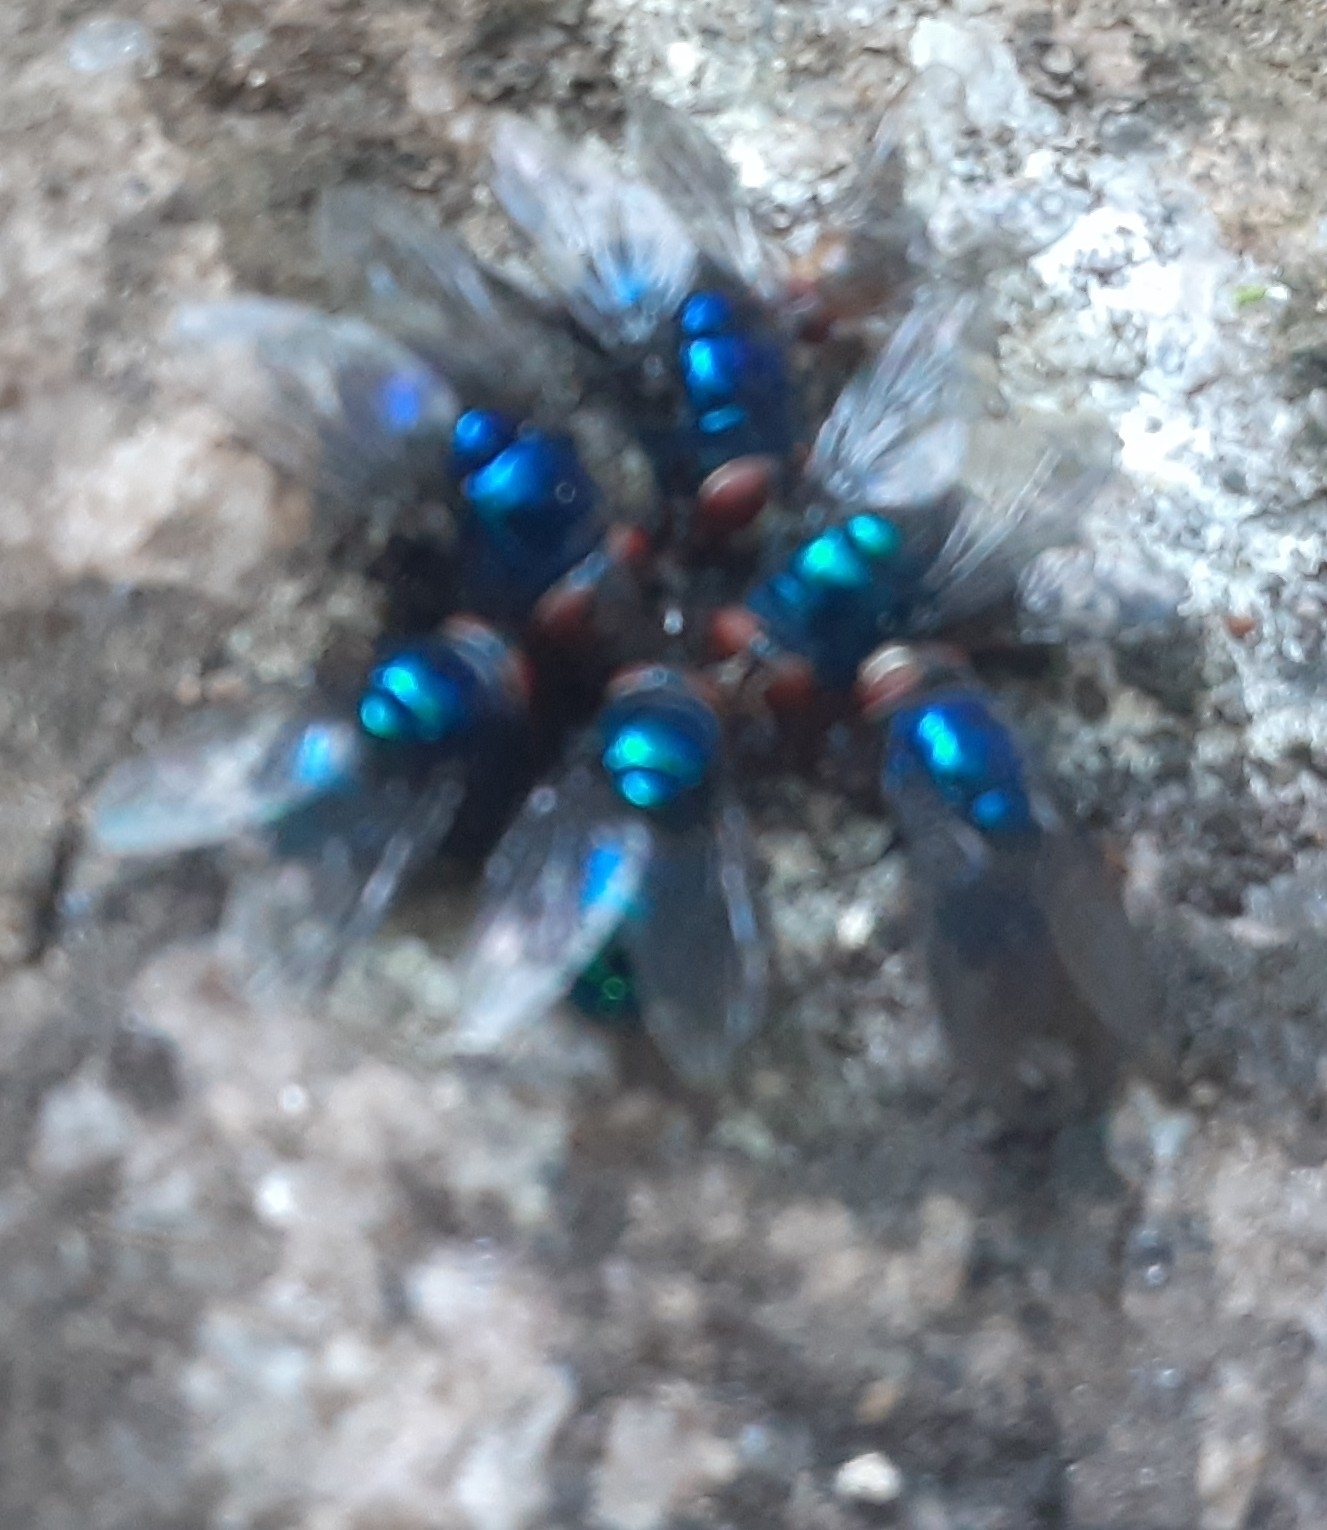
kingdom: Animalia
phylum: Arthropoda
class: Insecta
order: Diptera
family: Calliphoridae
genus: Chrysomya
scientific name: Chrysomya megacephala
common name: Blow fly
